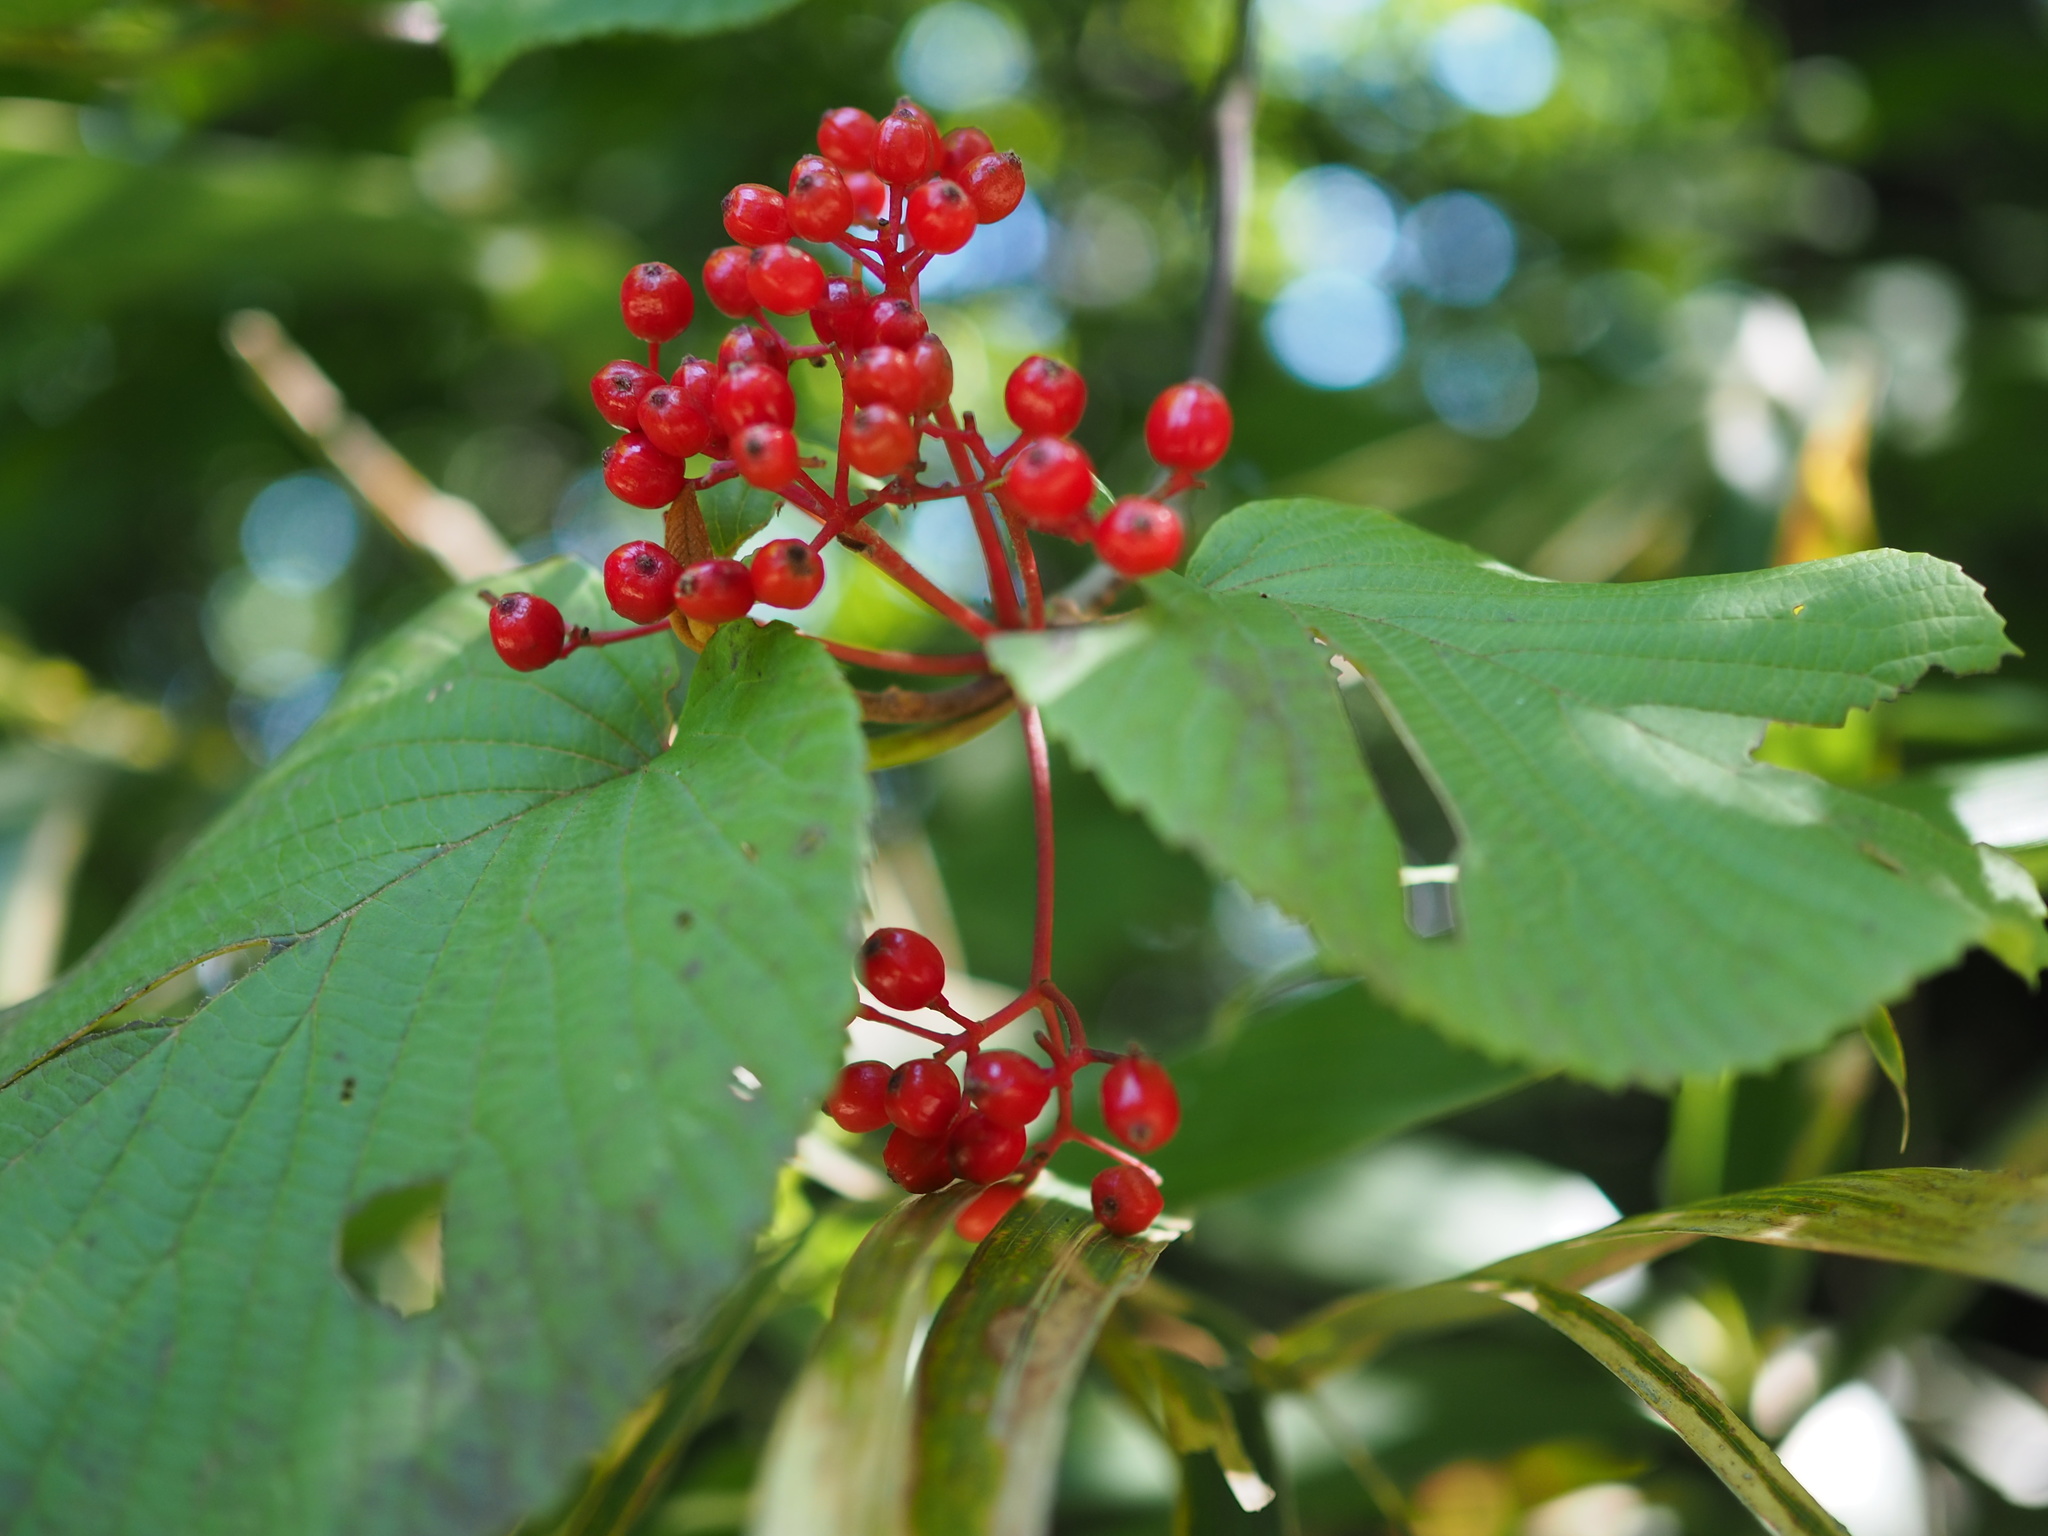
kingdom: Plantae
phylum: Tracheophyta
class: Magnoliopsida
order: Dipsacales
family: Viburnaceae
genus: Viburnum
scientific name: Viburnum furcatum
